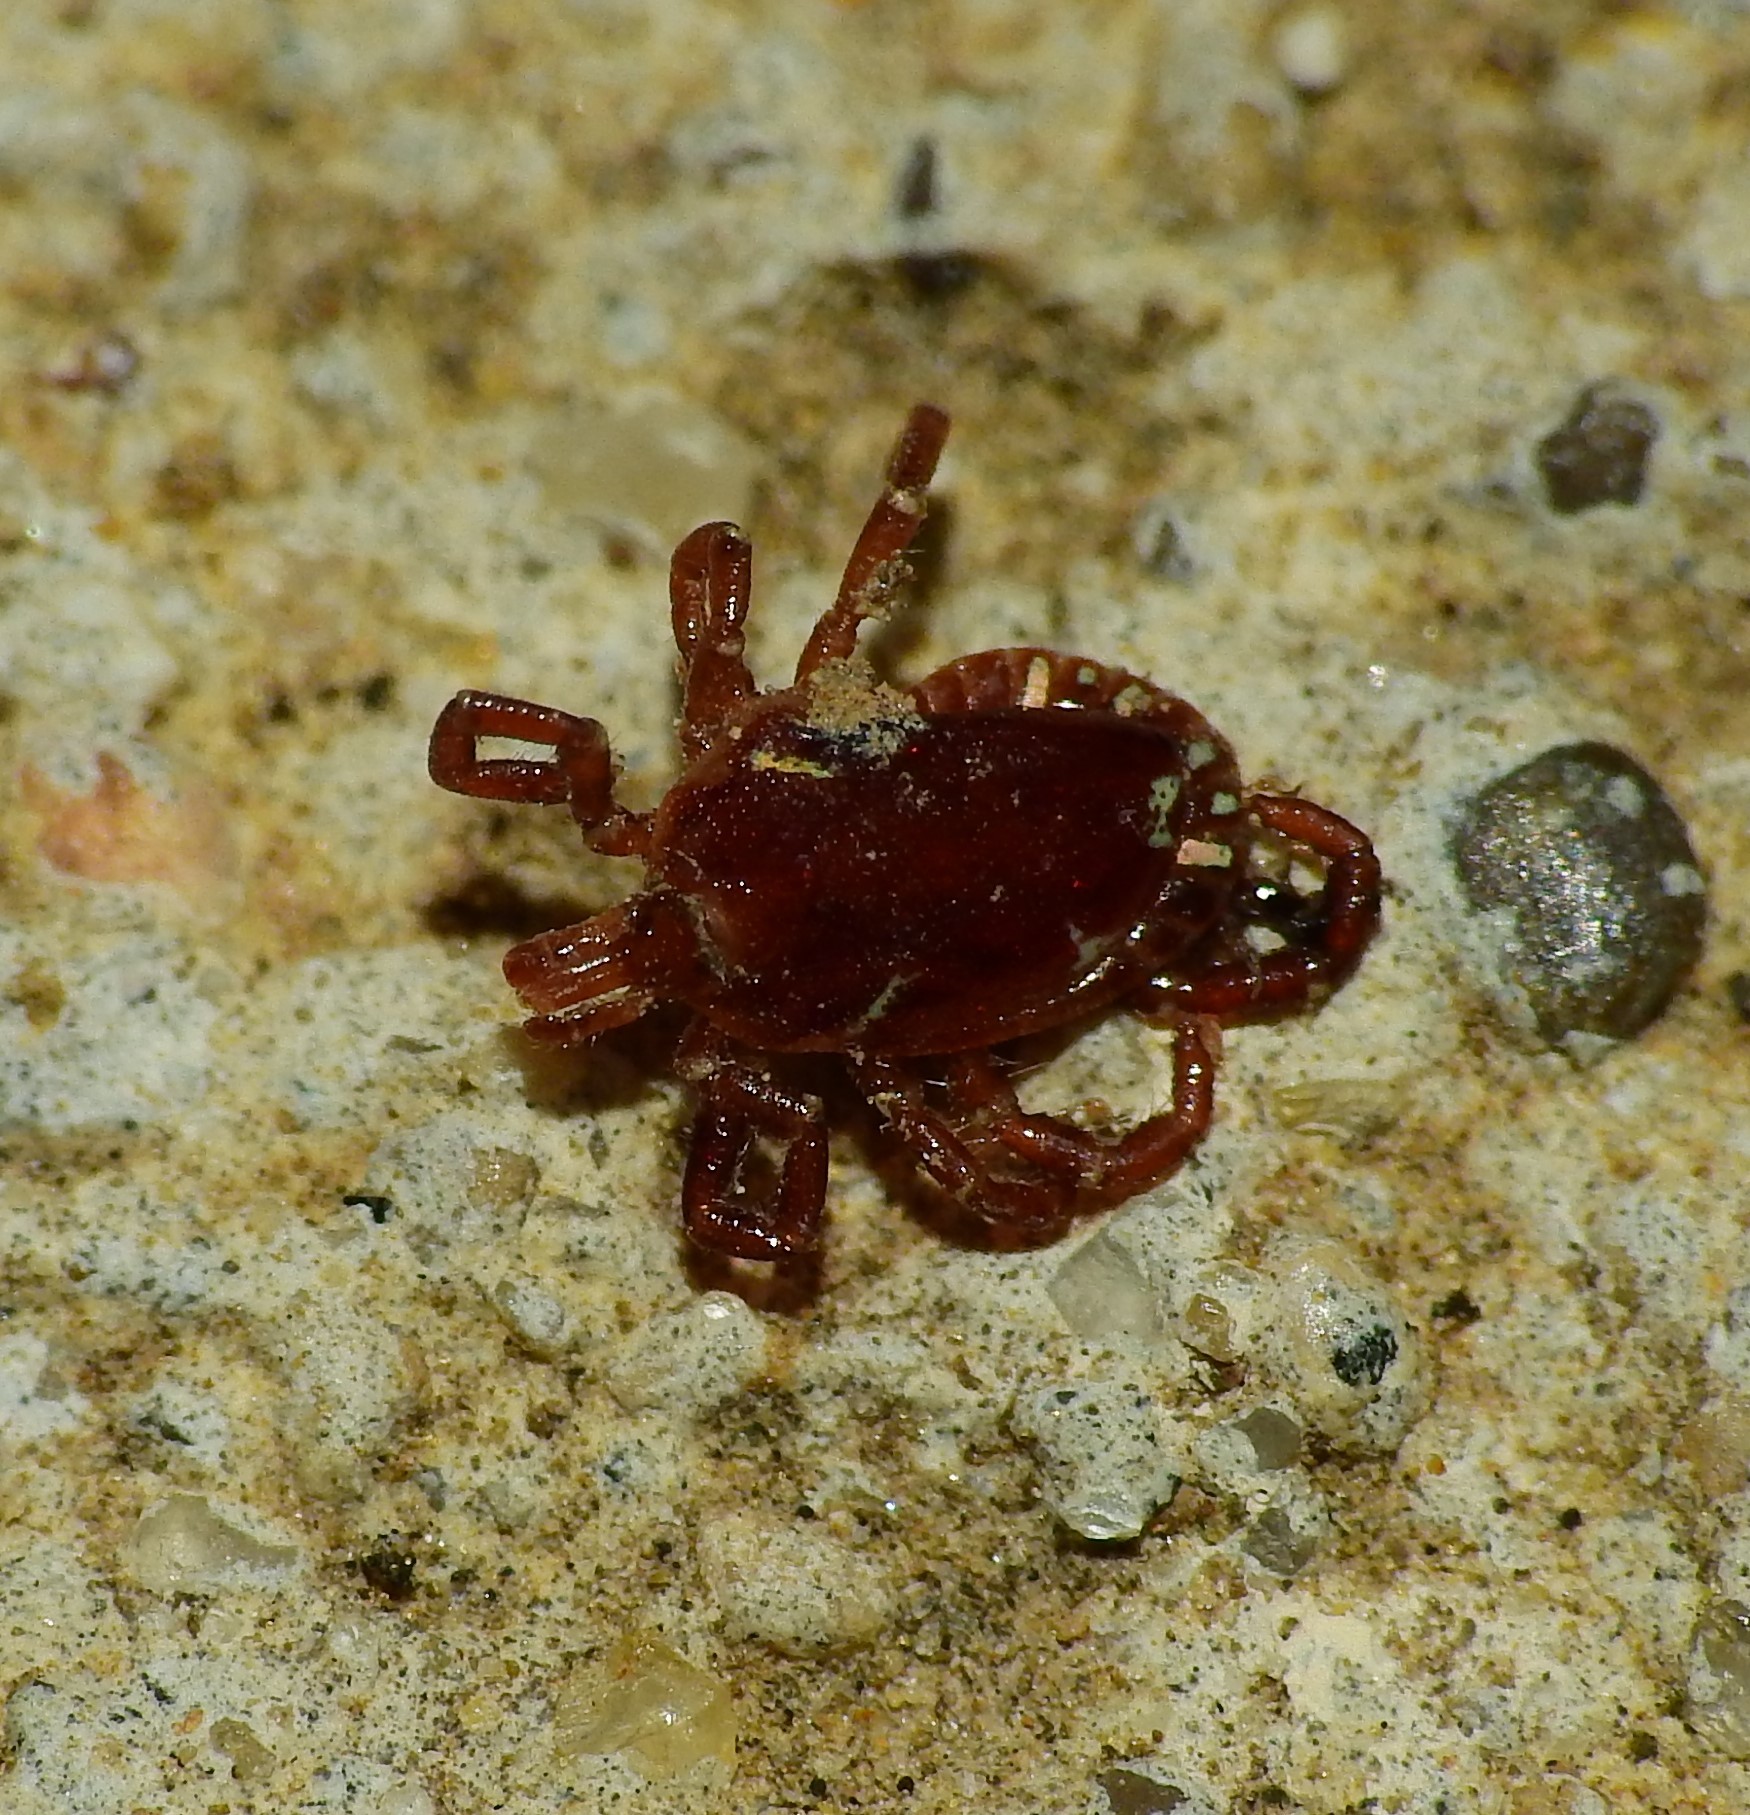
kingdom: Animalia
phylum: Arthropoda
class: Arachnida
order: Ixodida
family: Ixodidae
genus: Amblyomma
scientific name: Amblyomma americanum
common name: Lone star tick
